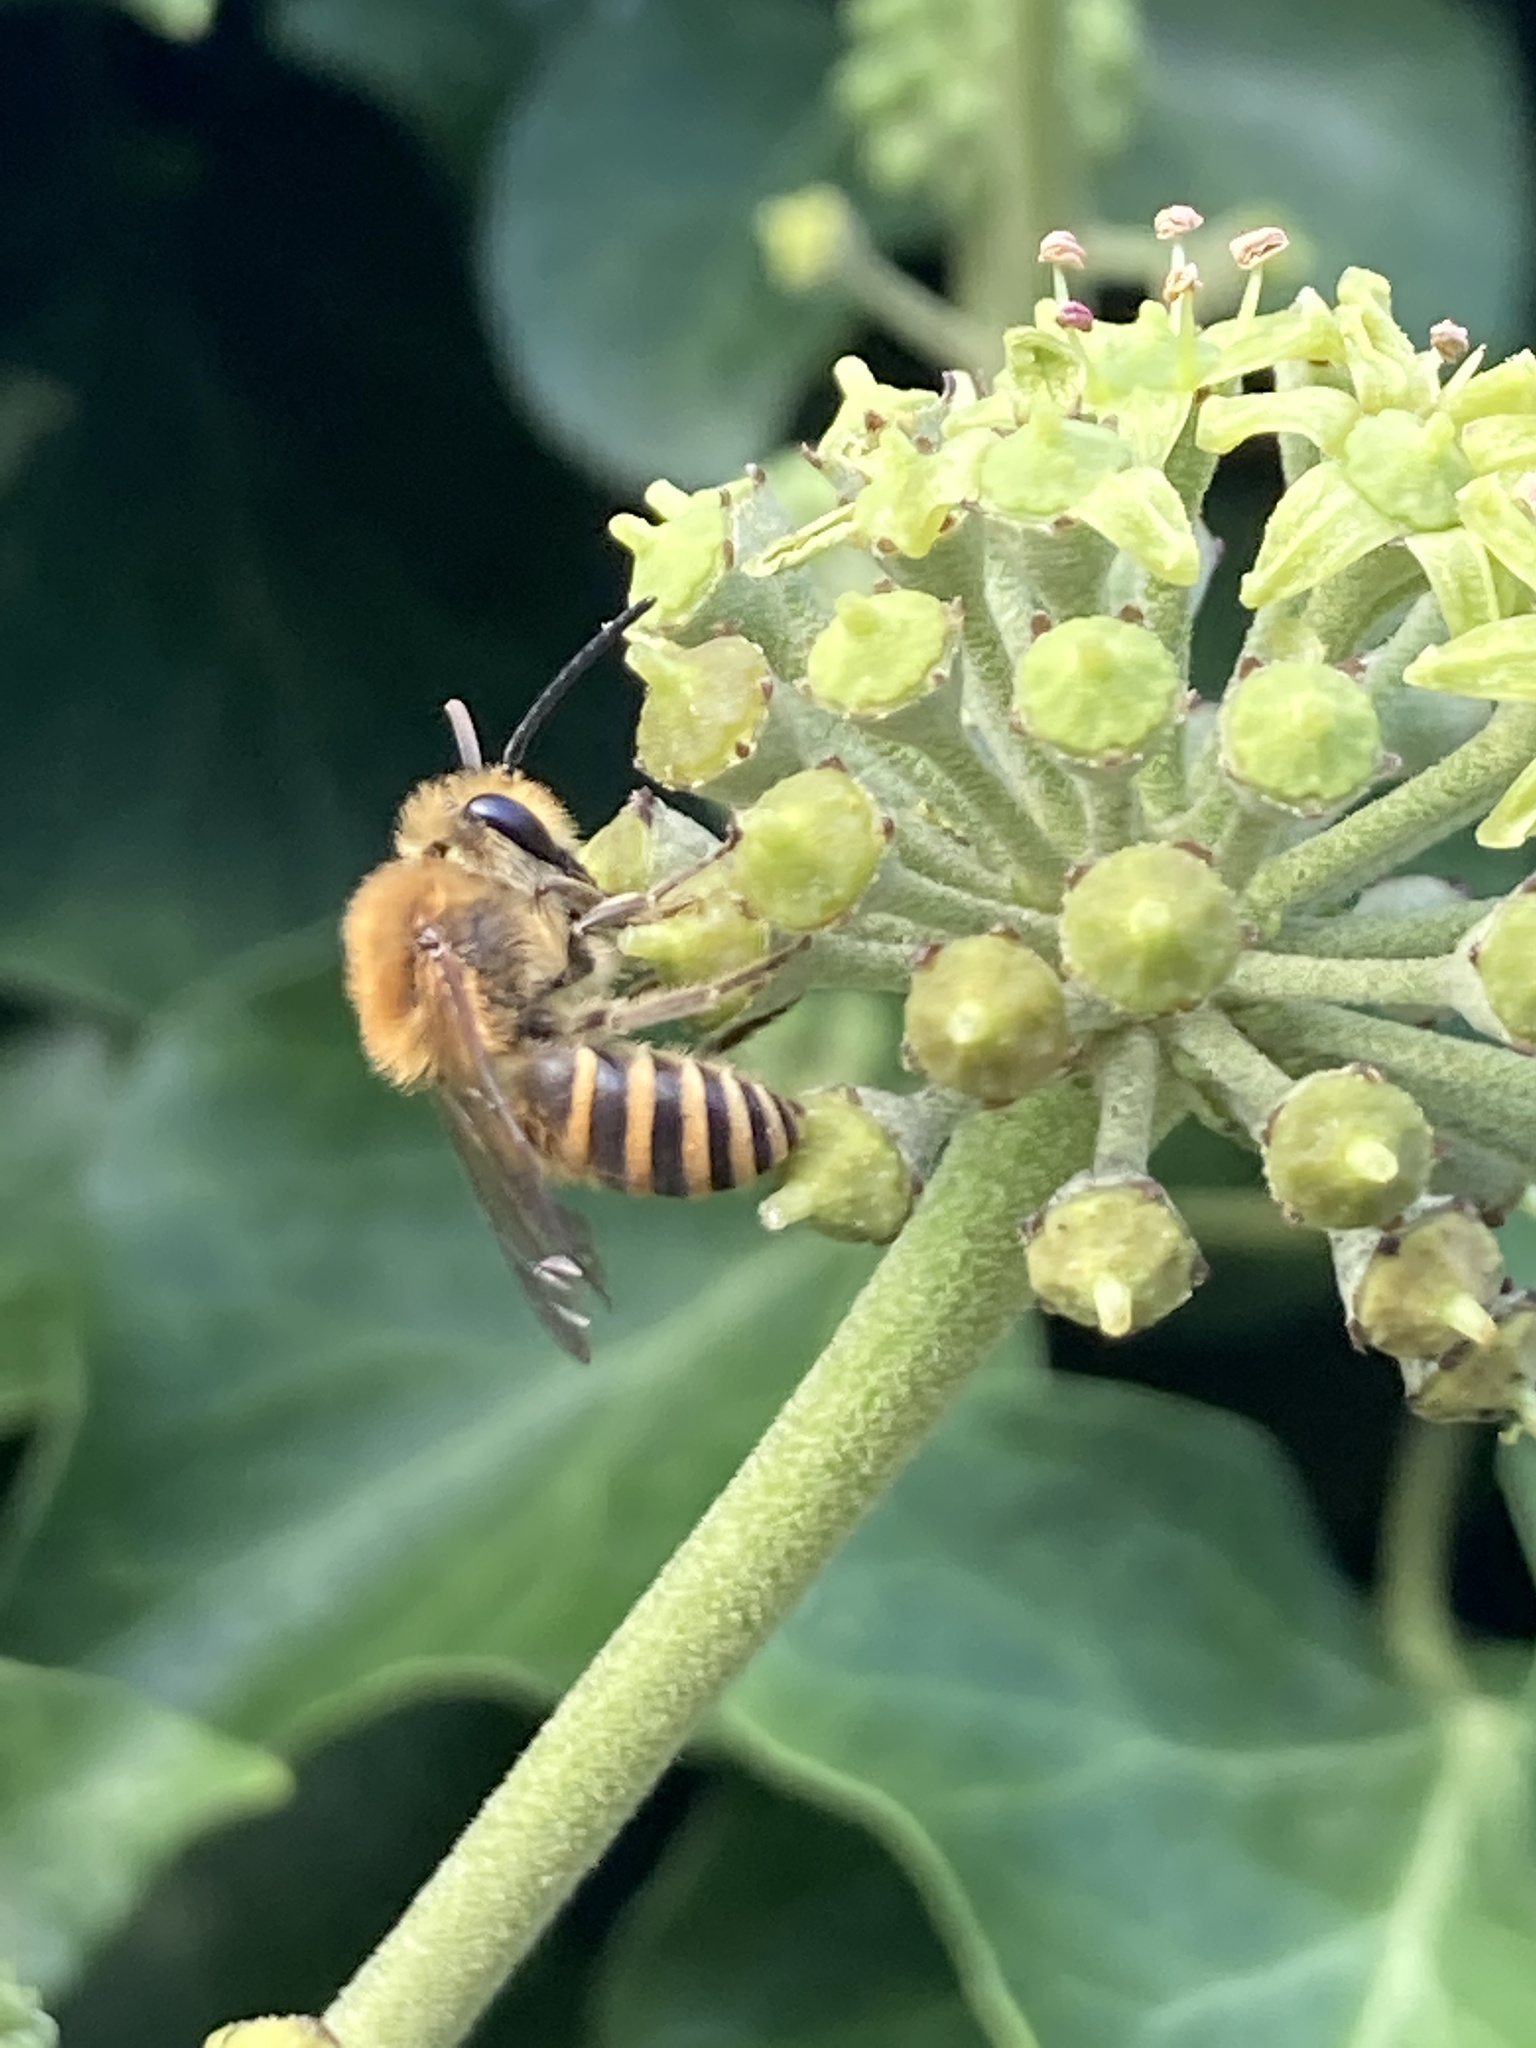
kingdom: Animalia
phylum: Arthropoda
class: Insecta
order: Hymenoptera
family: Colletidae
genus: Colletes
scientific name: Colletes hederae
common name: Ivy bee
